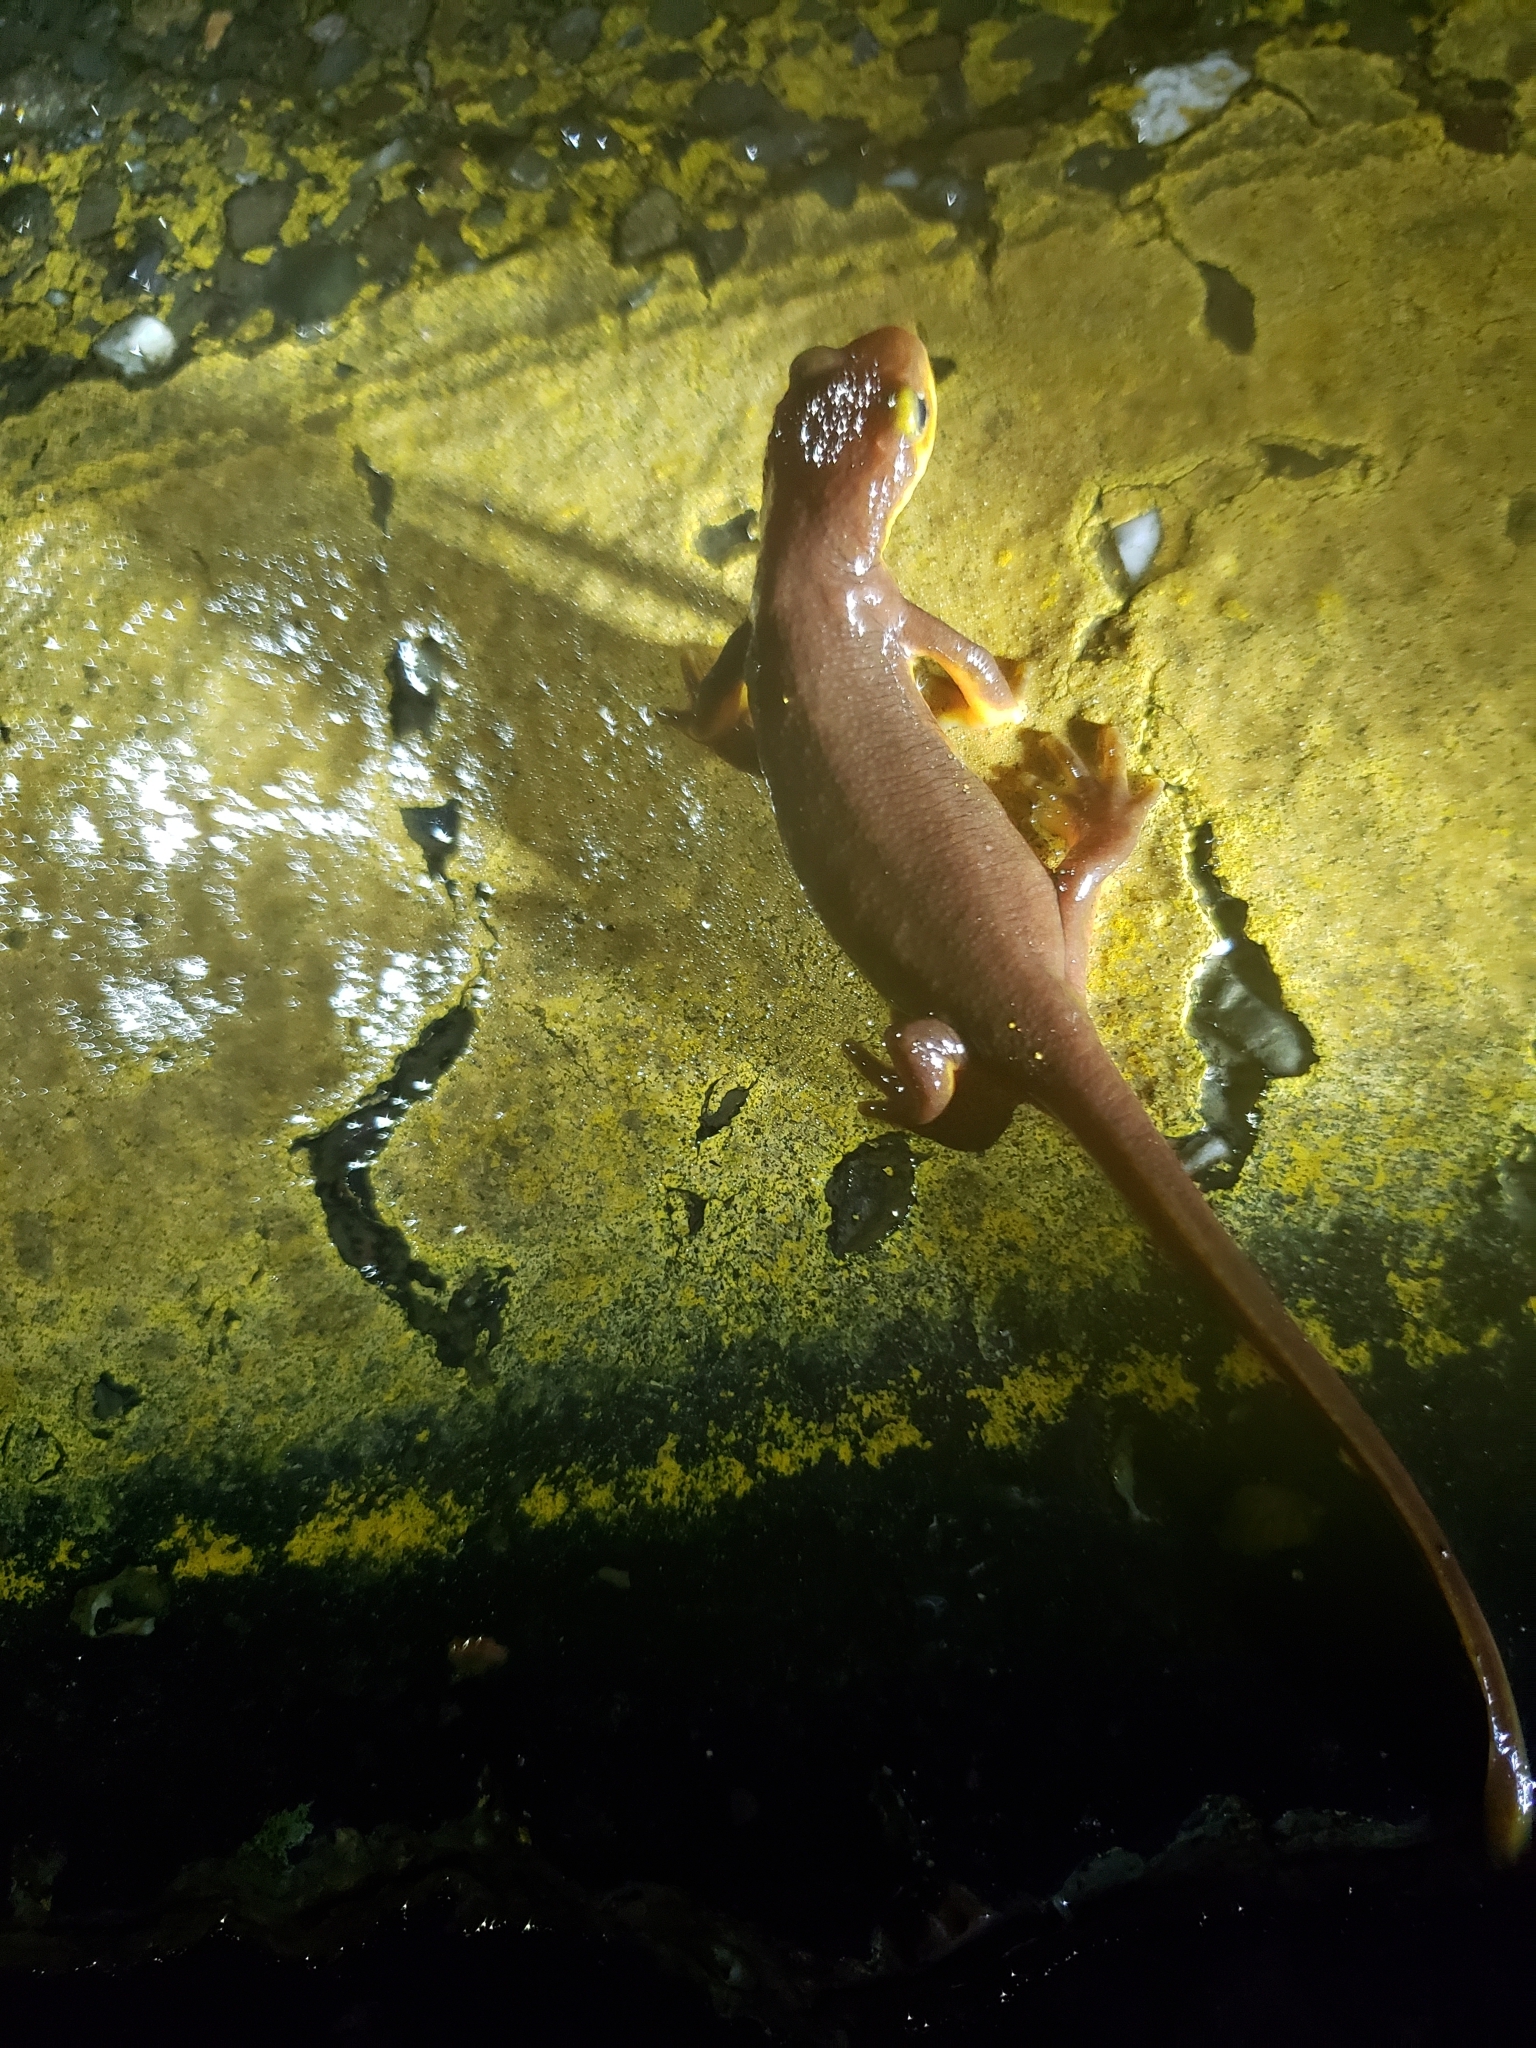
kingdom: Animalia
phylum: Chordata
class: Amphibia
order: Caudata
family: Salamandridae
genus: Taricha
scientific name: Taricha torosa
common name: California newt
